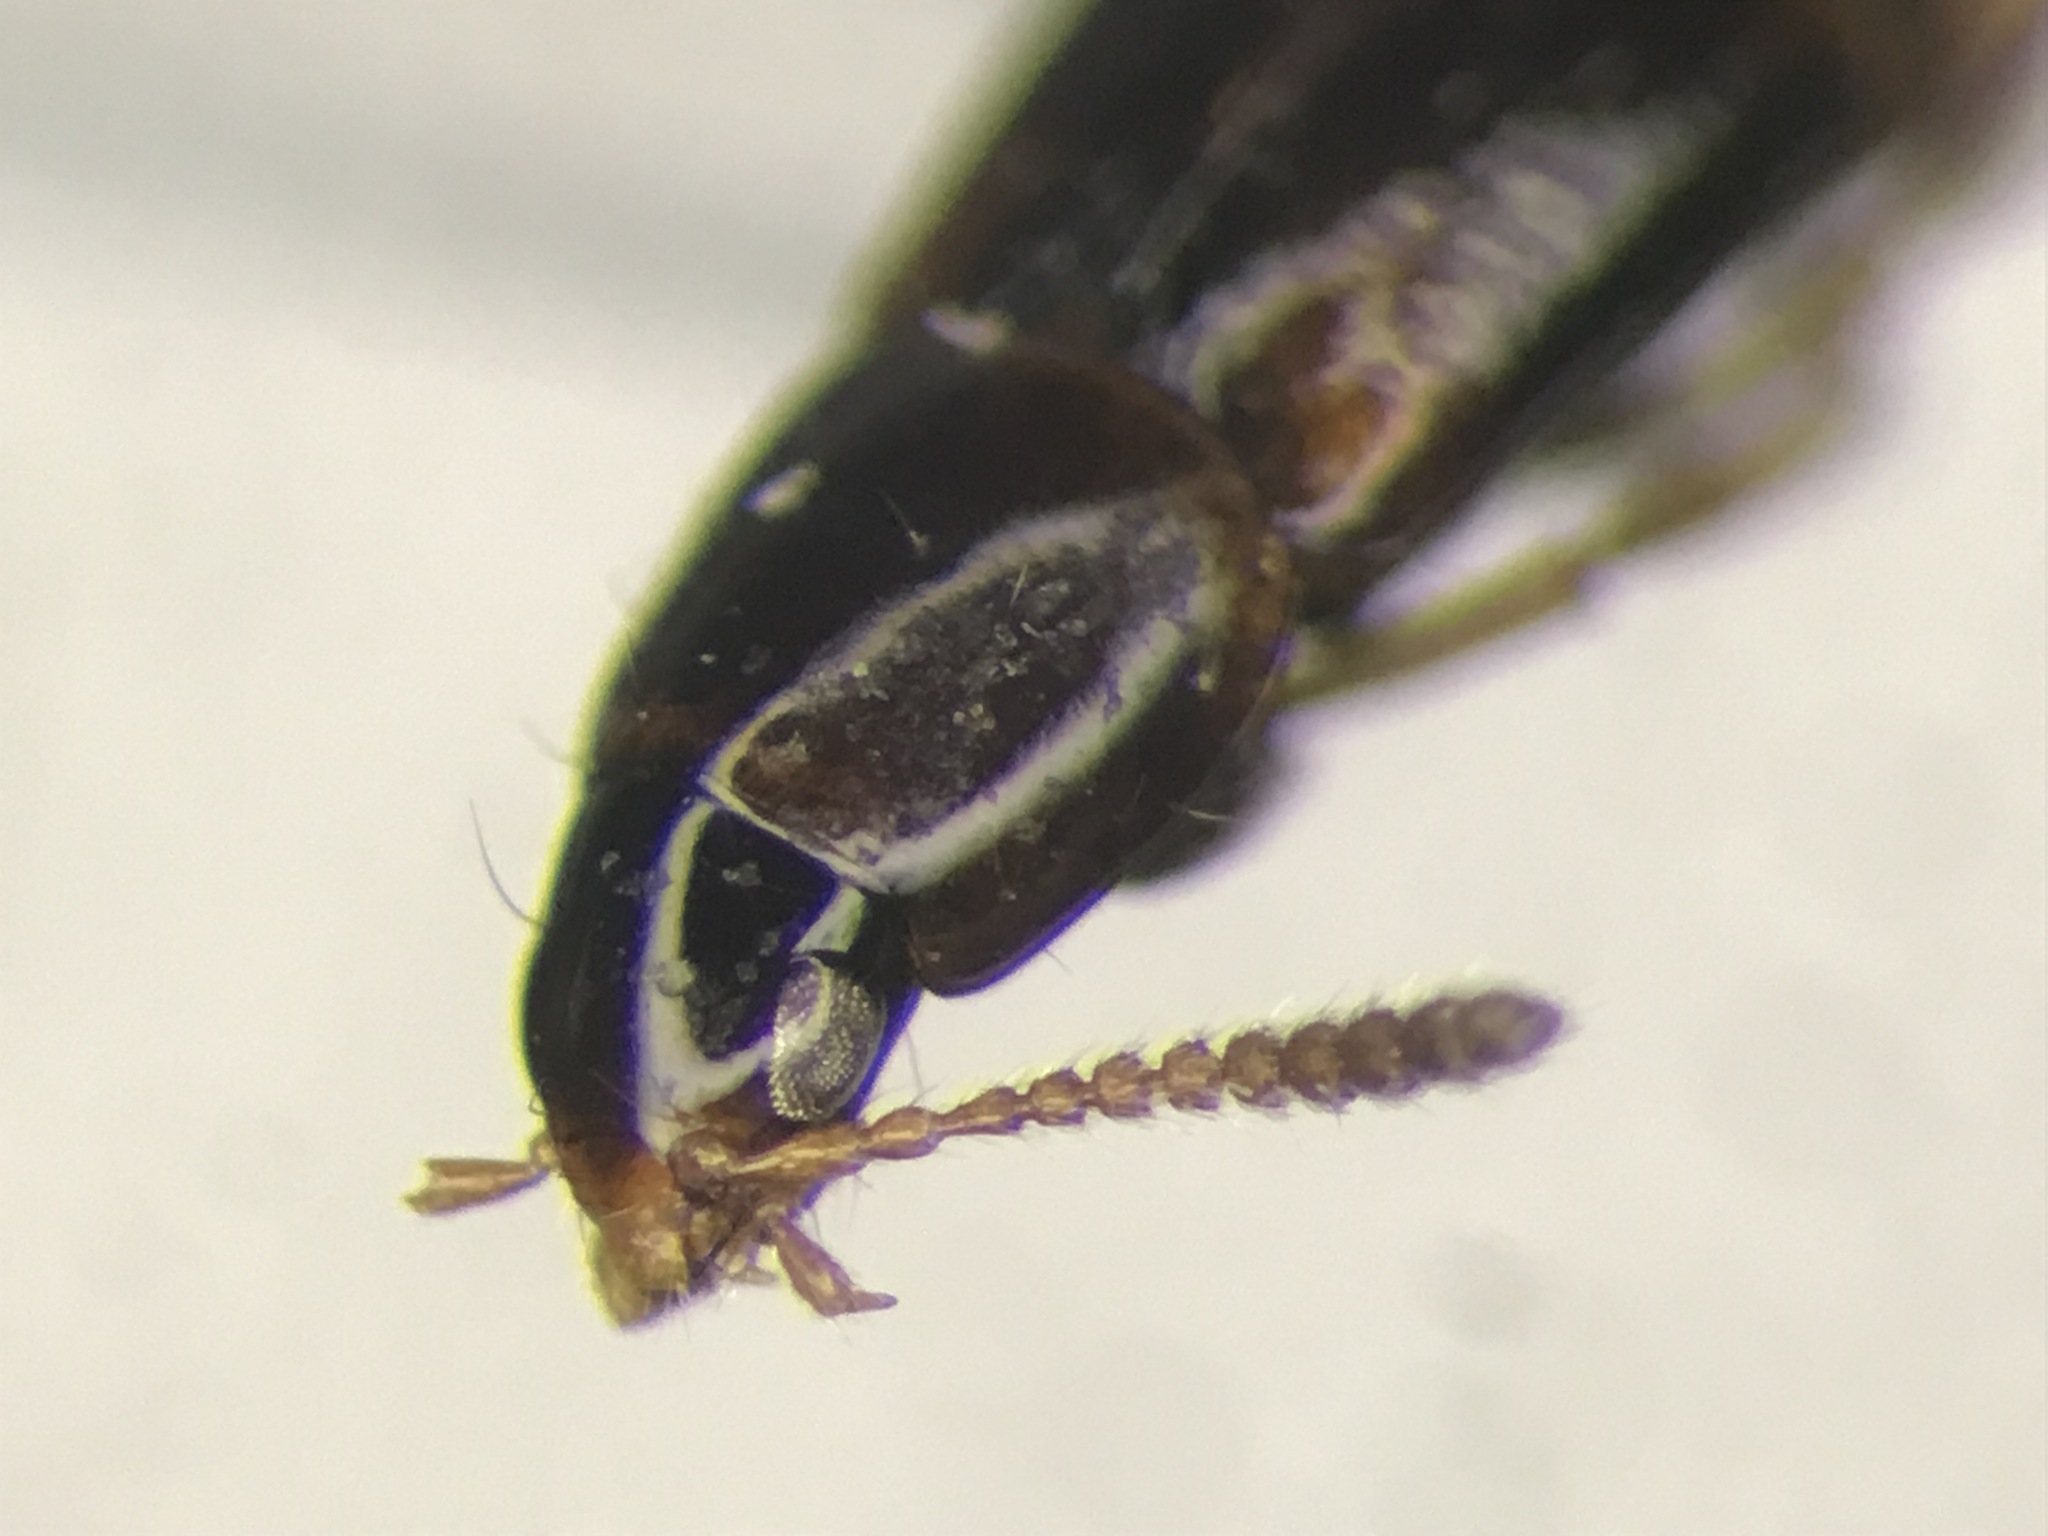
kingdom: Animalia
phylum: Arthropoda
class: Insecta
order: Coleoptera
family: Staphylinidae
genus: Mycetoporus
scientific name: Mycetoporus lucidulus
